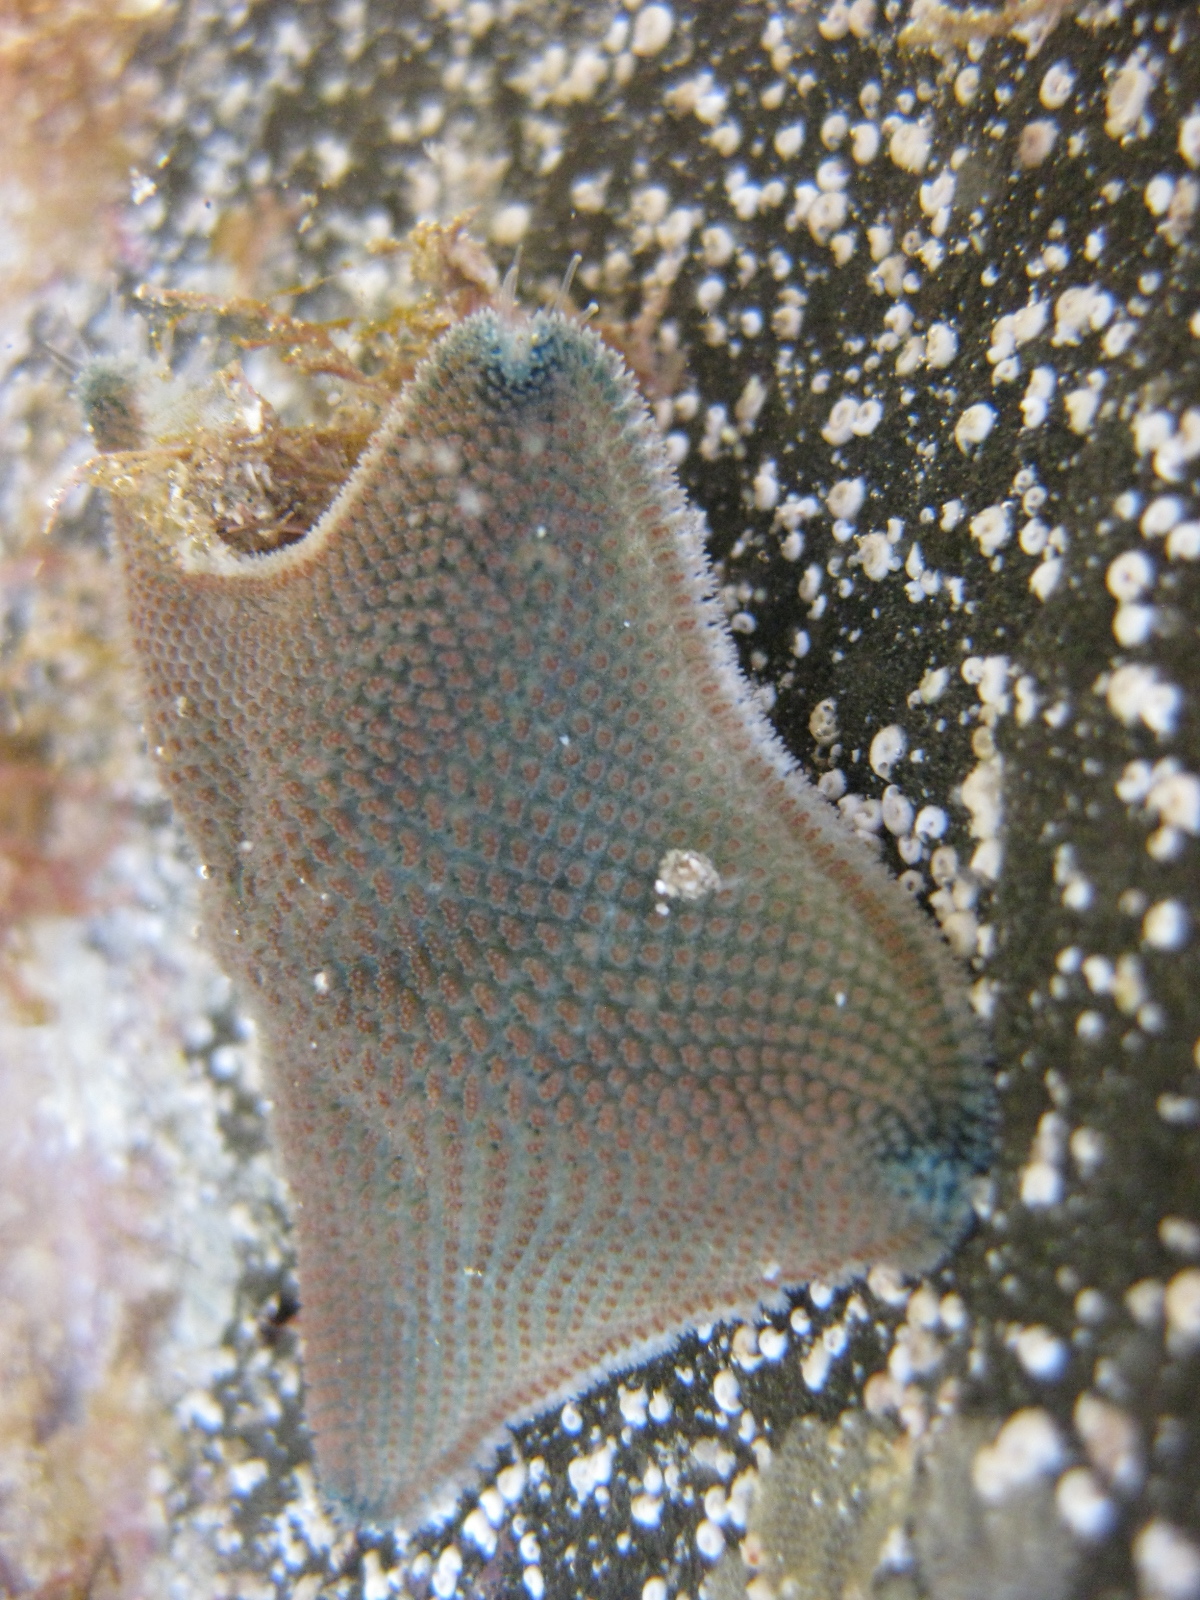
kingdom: Animalia
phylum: Echinodermata
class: Asteroidea
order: Valvatida
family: Asterinidae
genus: Patiriella
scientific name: Patiriella regularis
